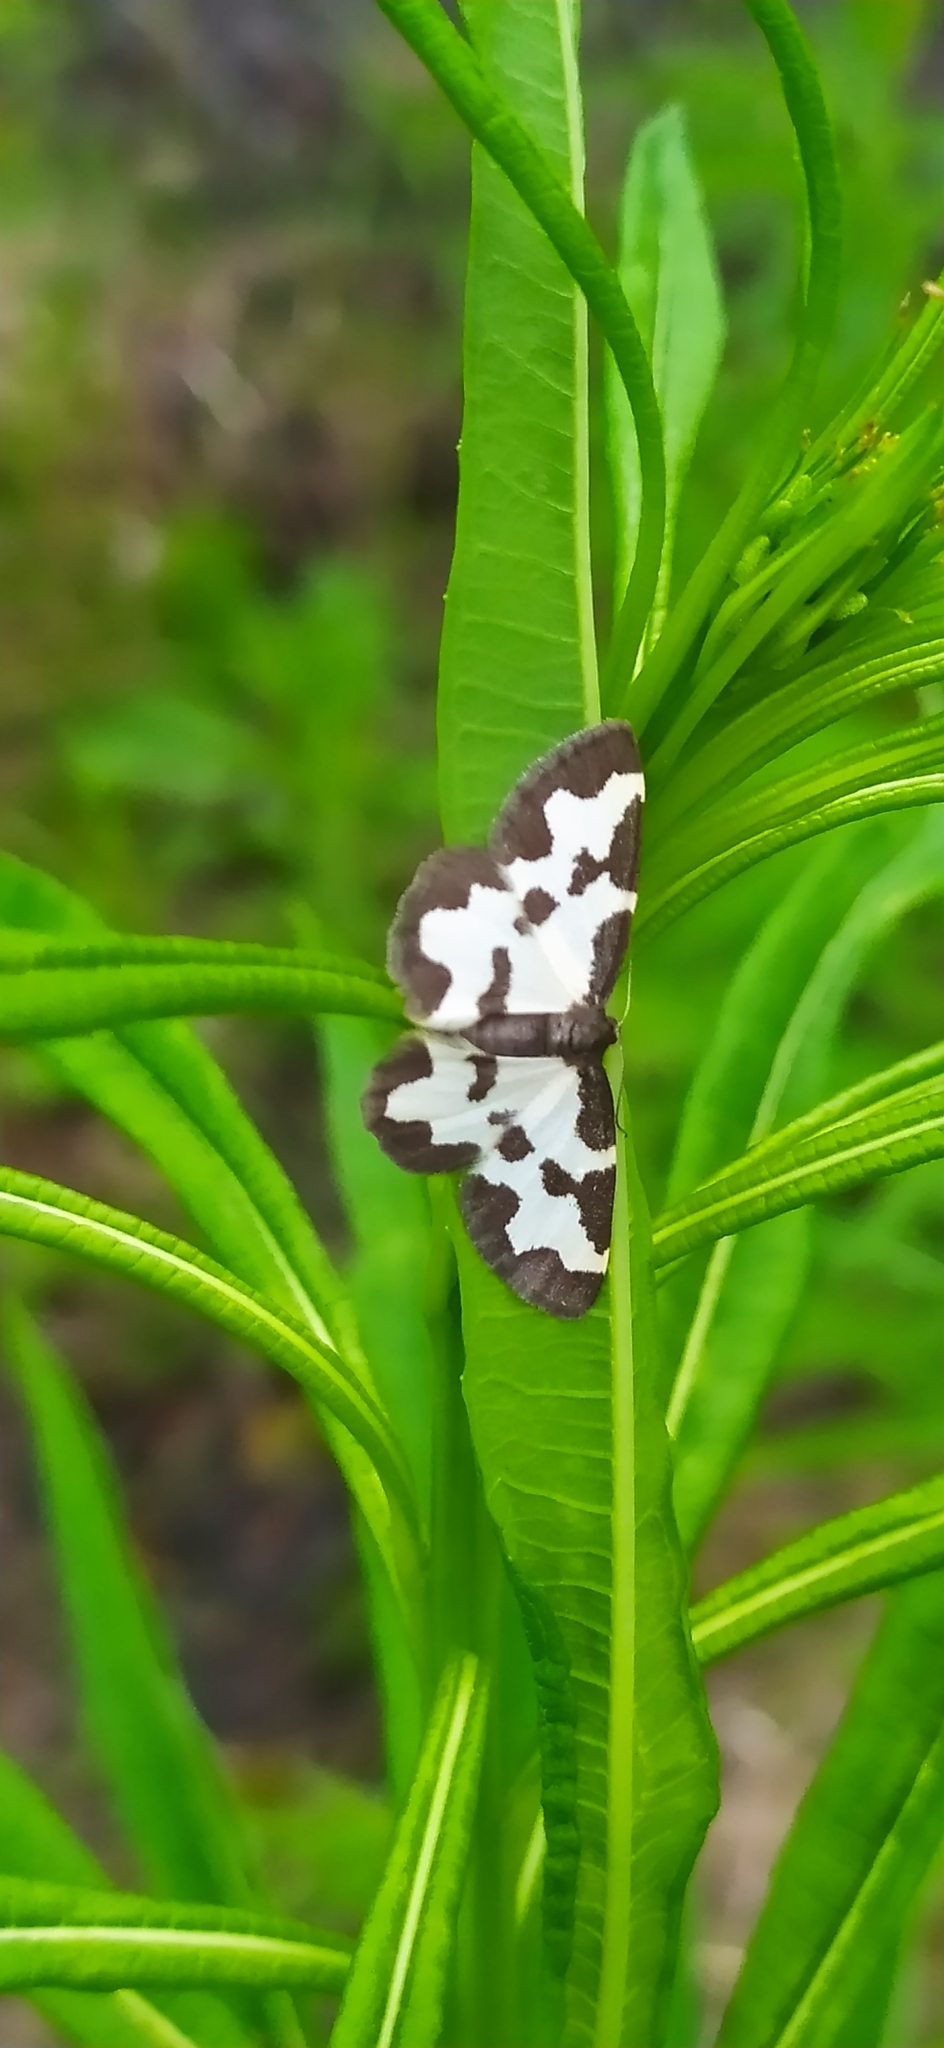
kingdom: Animalia
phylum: Arthropoda
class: Insecta
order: Lepidoptera
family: Geometridae
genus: Lomaspilis
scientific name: Lomaspilis marginata
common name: Clouded border
